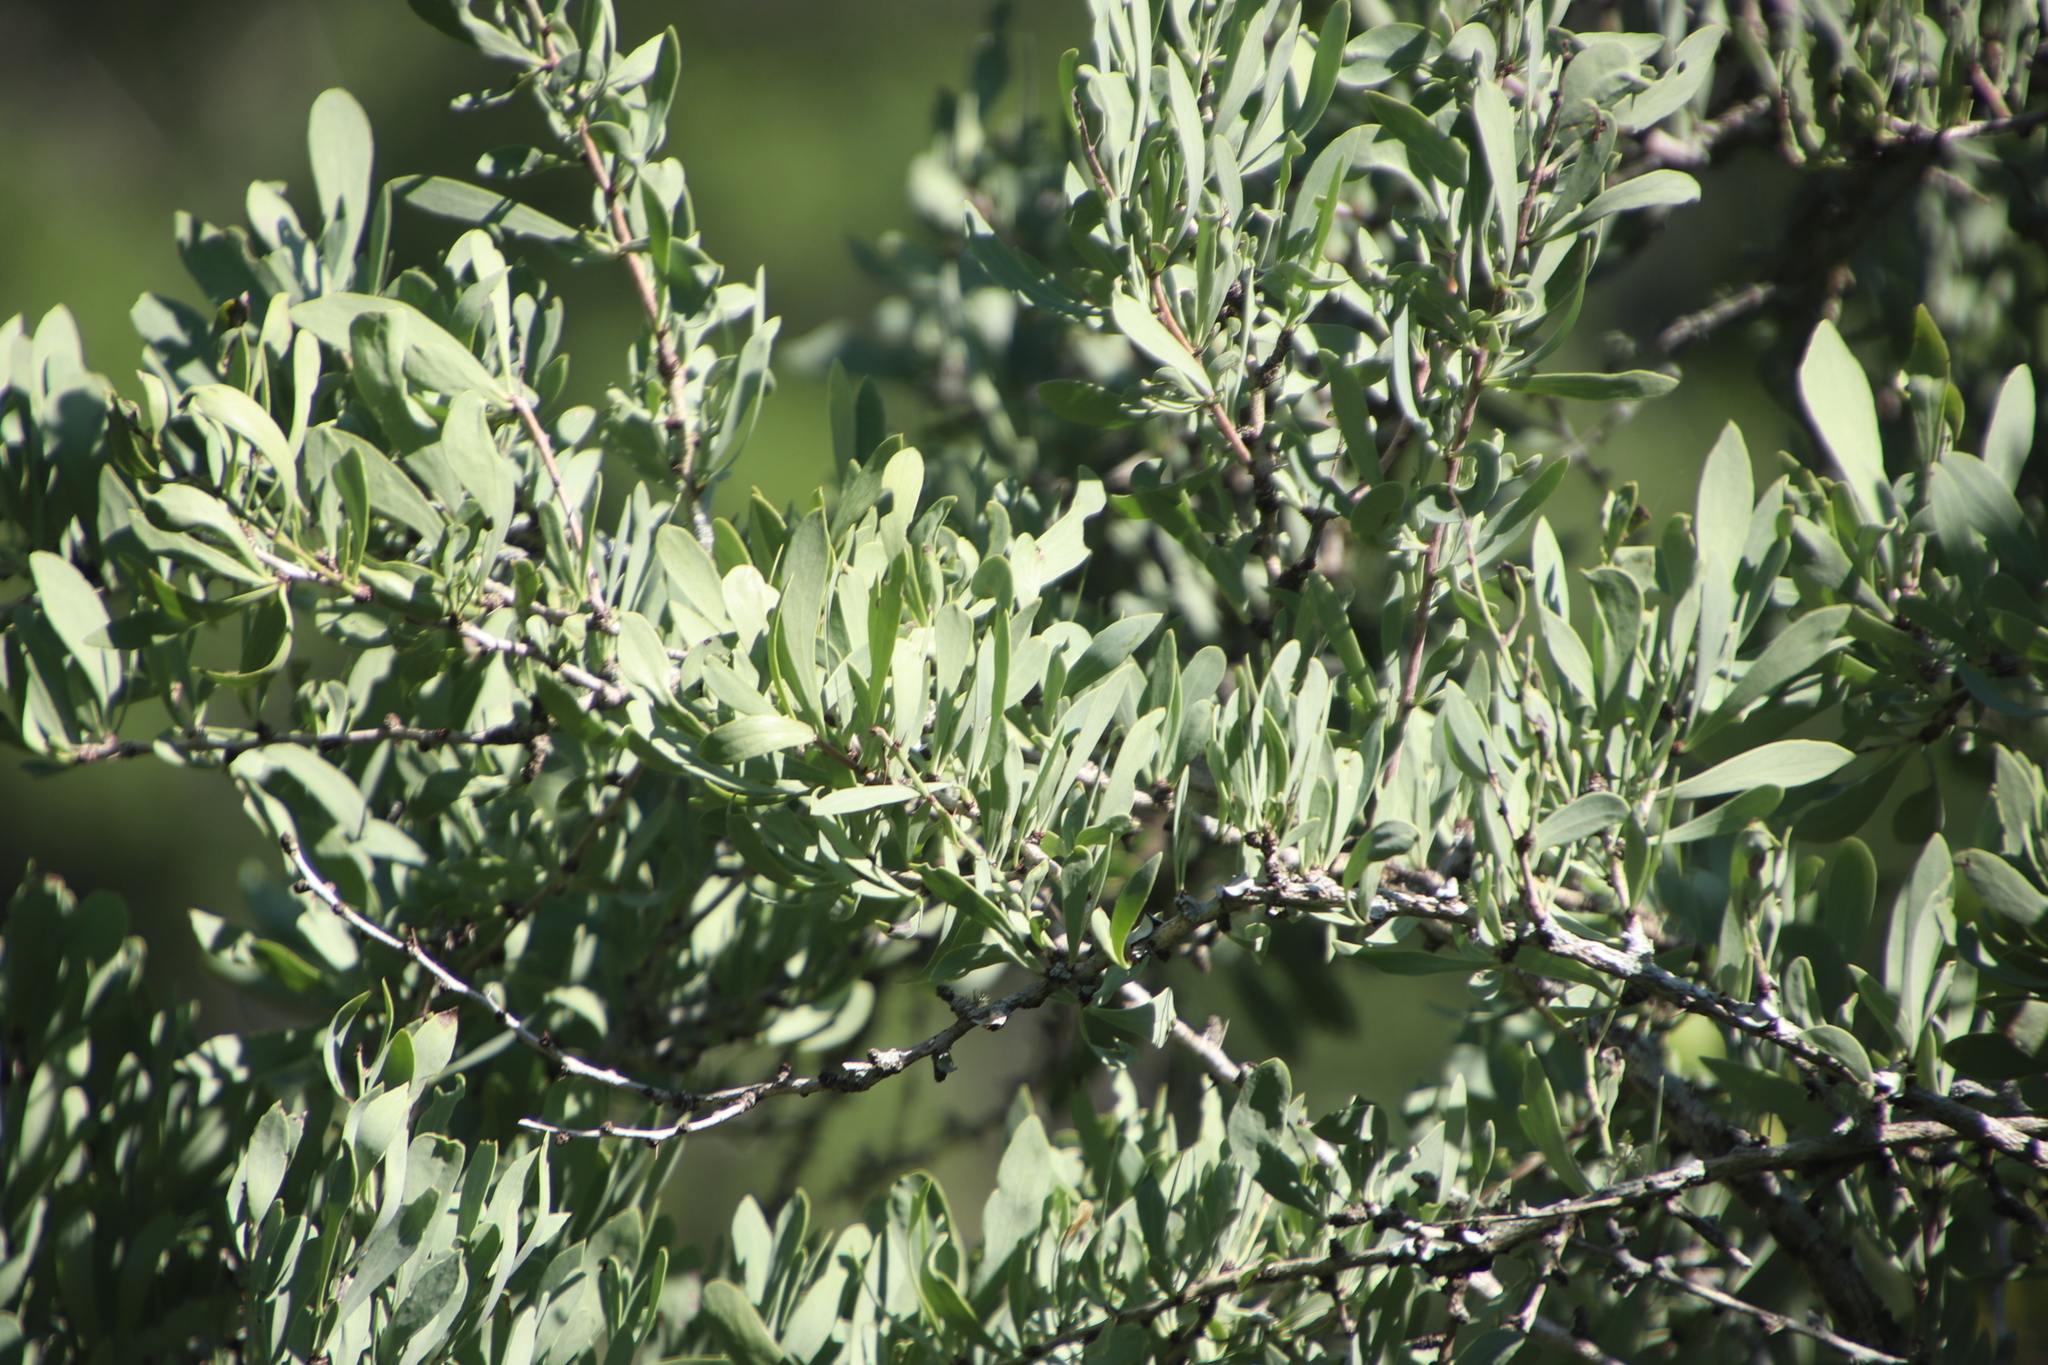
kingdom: Plantae
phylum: Tracheophyta
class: Magnoliopsida
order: Celastrales
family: Celastraceae
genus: Gymnosporia
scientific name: Gymnosporia glaucophylla
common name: Blue spike-thorn
